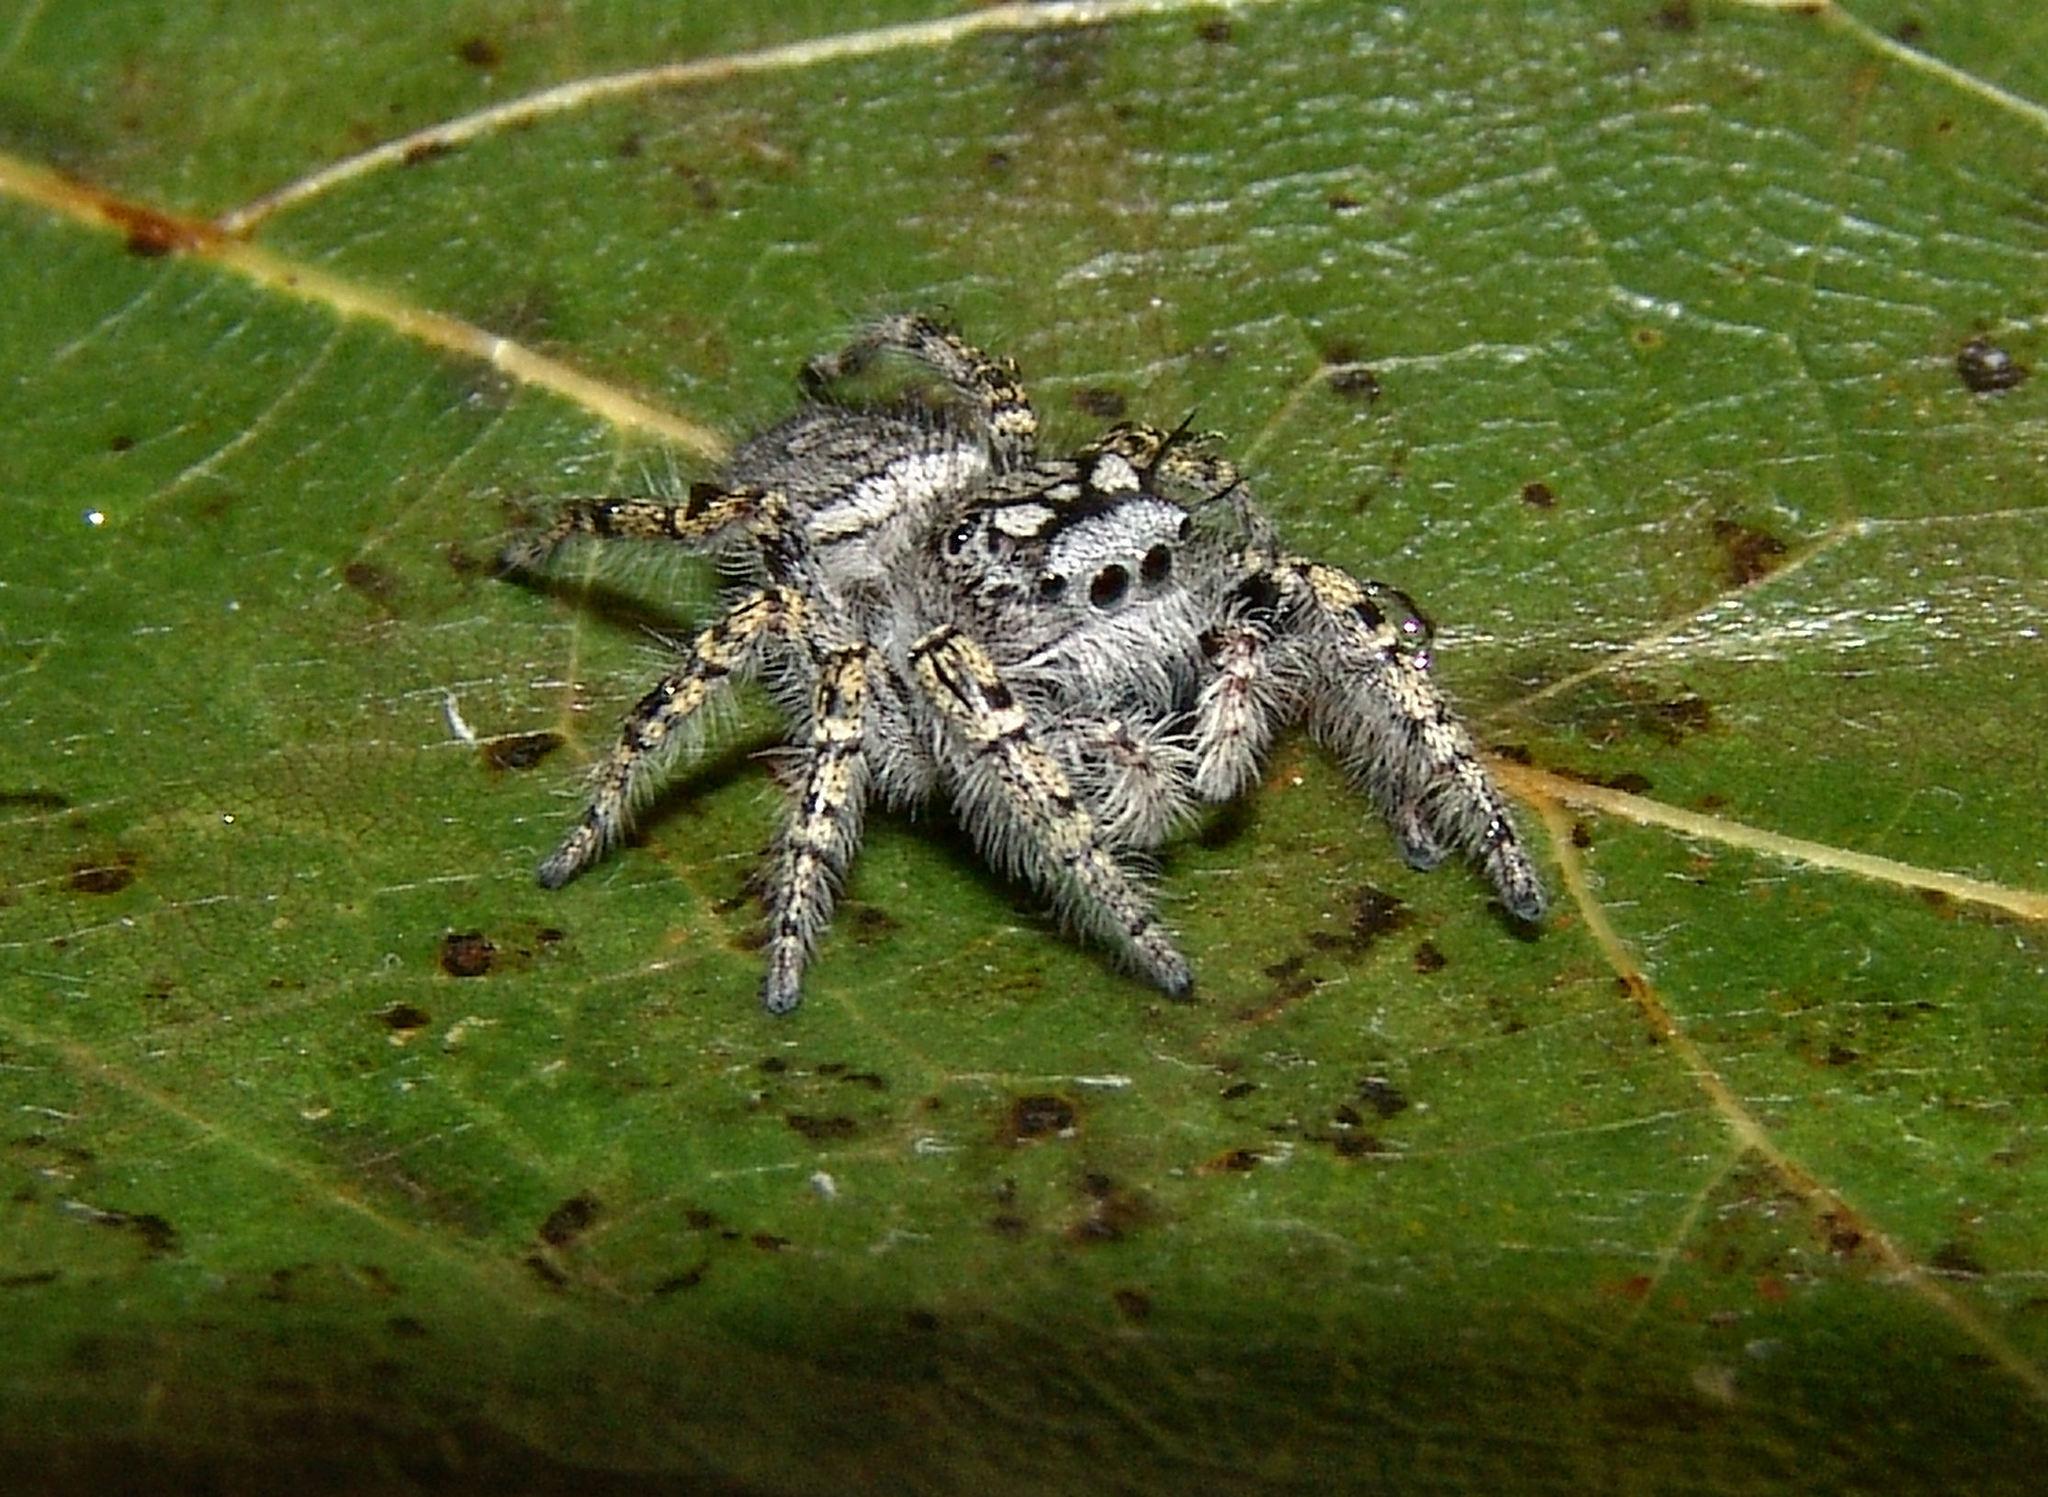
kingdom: Animalia
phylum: Arthropoda
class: Arachnida
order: Araneae
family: Salticidae
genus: Phidippus
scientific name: Phidippus mystaceus
